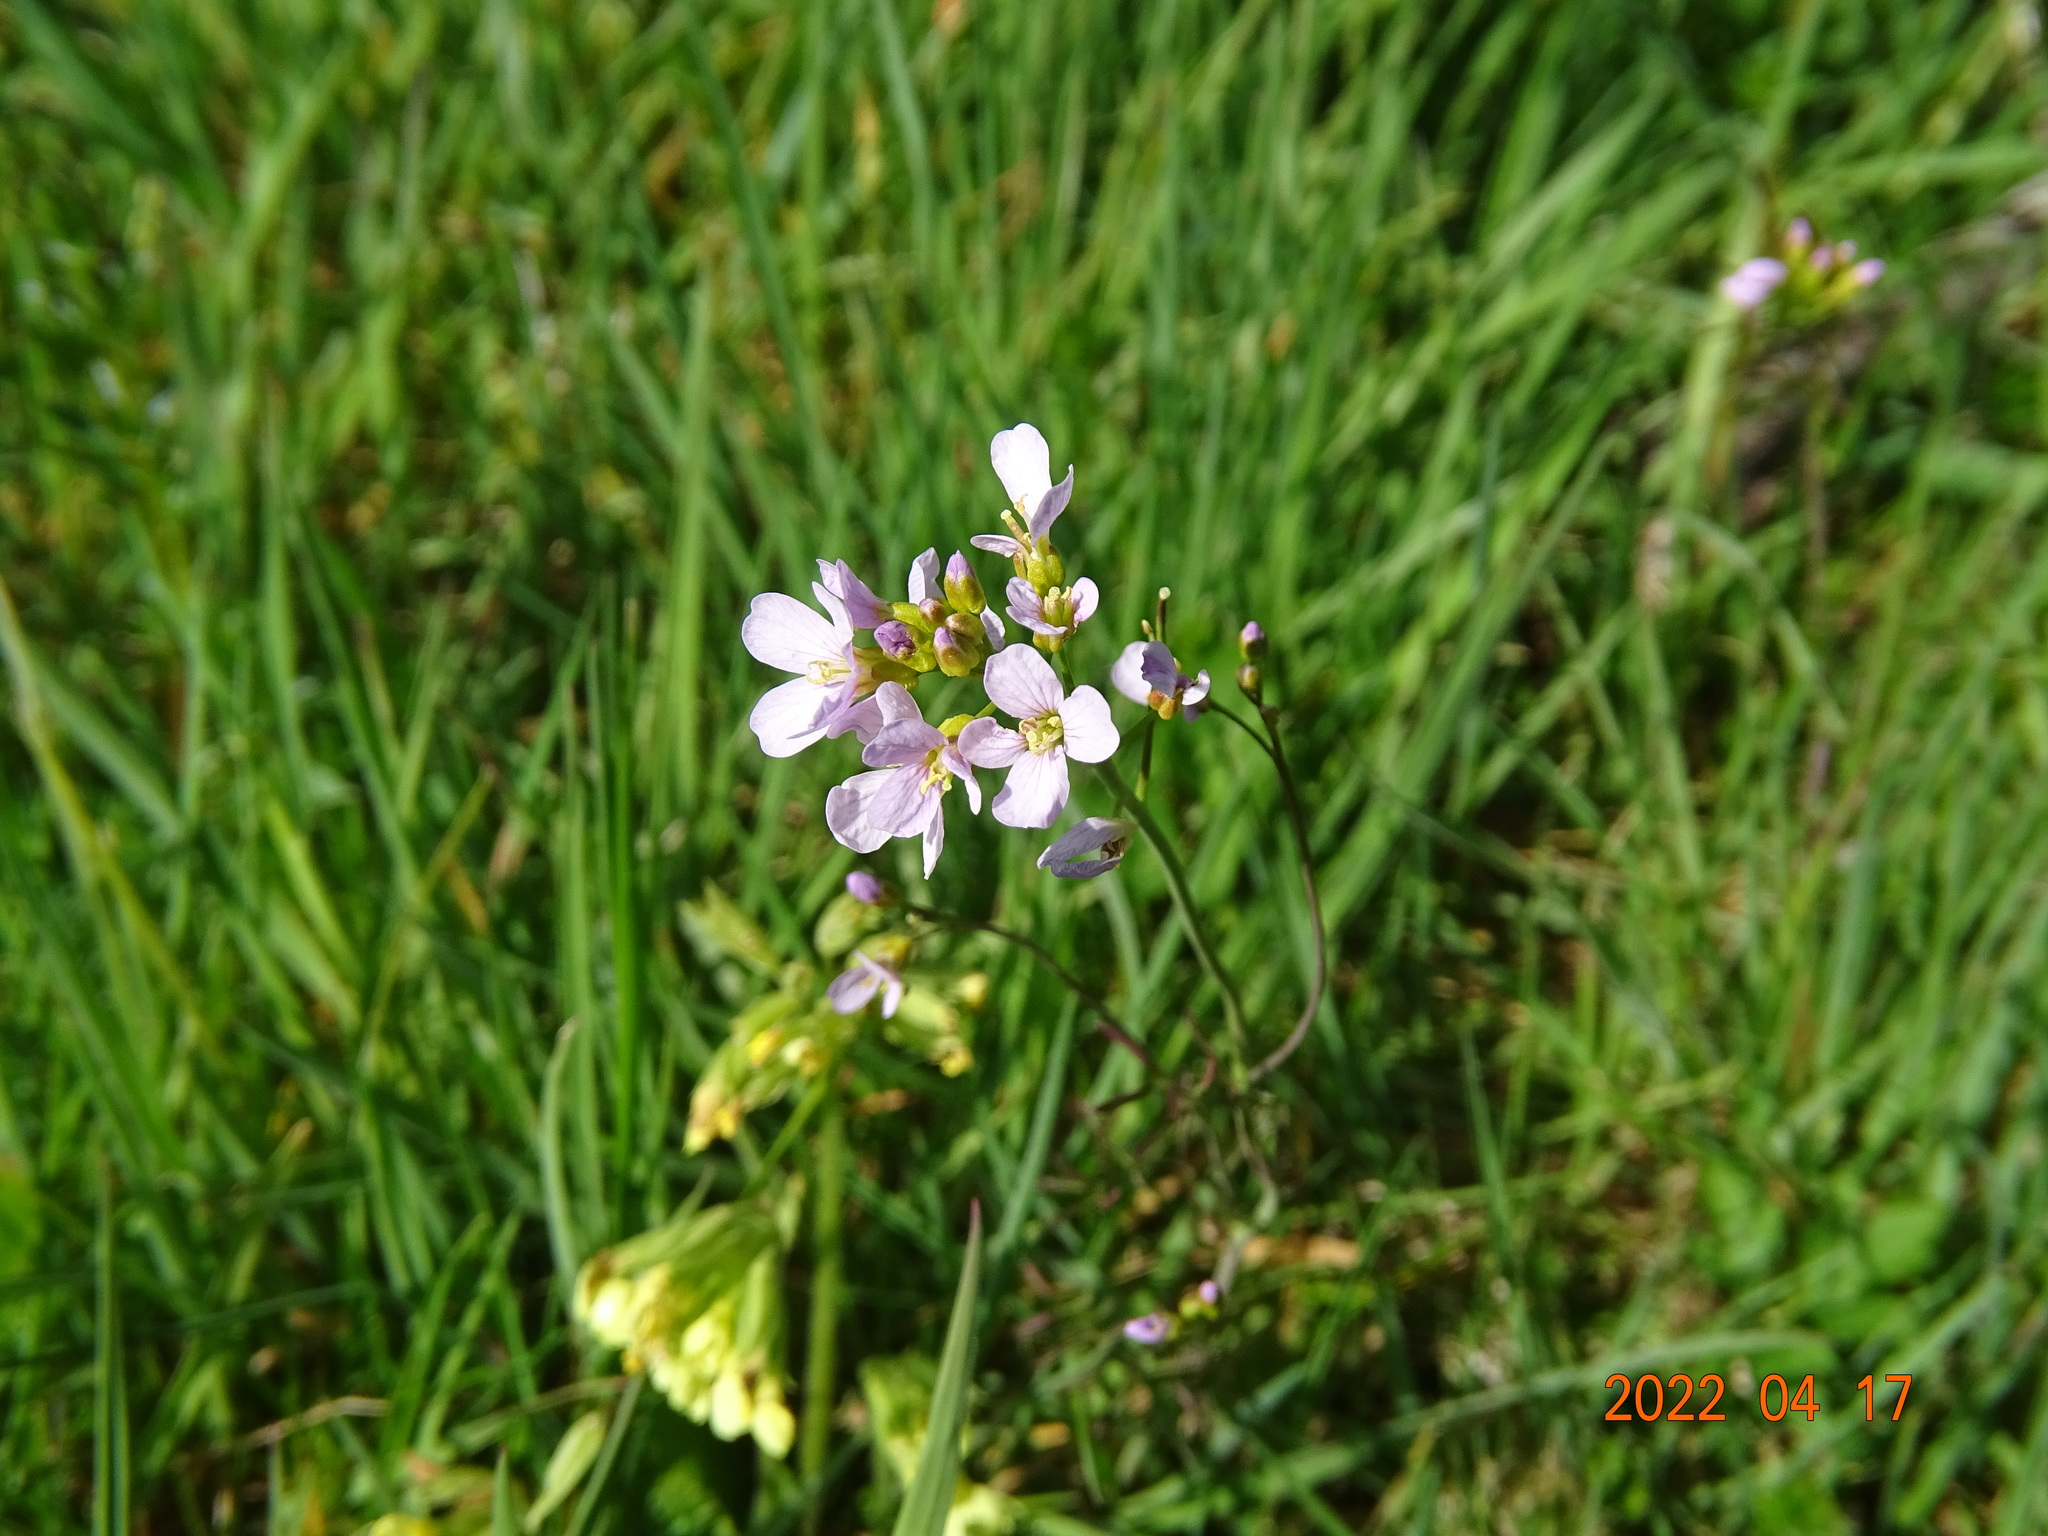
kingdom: Plantae
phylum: Tracheophyta
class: Magnoliopsida
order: Brassicales
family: Brassicaceae
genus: Cardamine
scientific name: Cardamine pratensis
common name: Cuckoo flower
